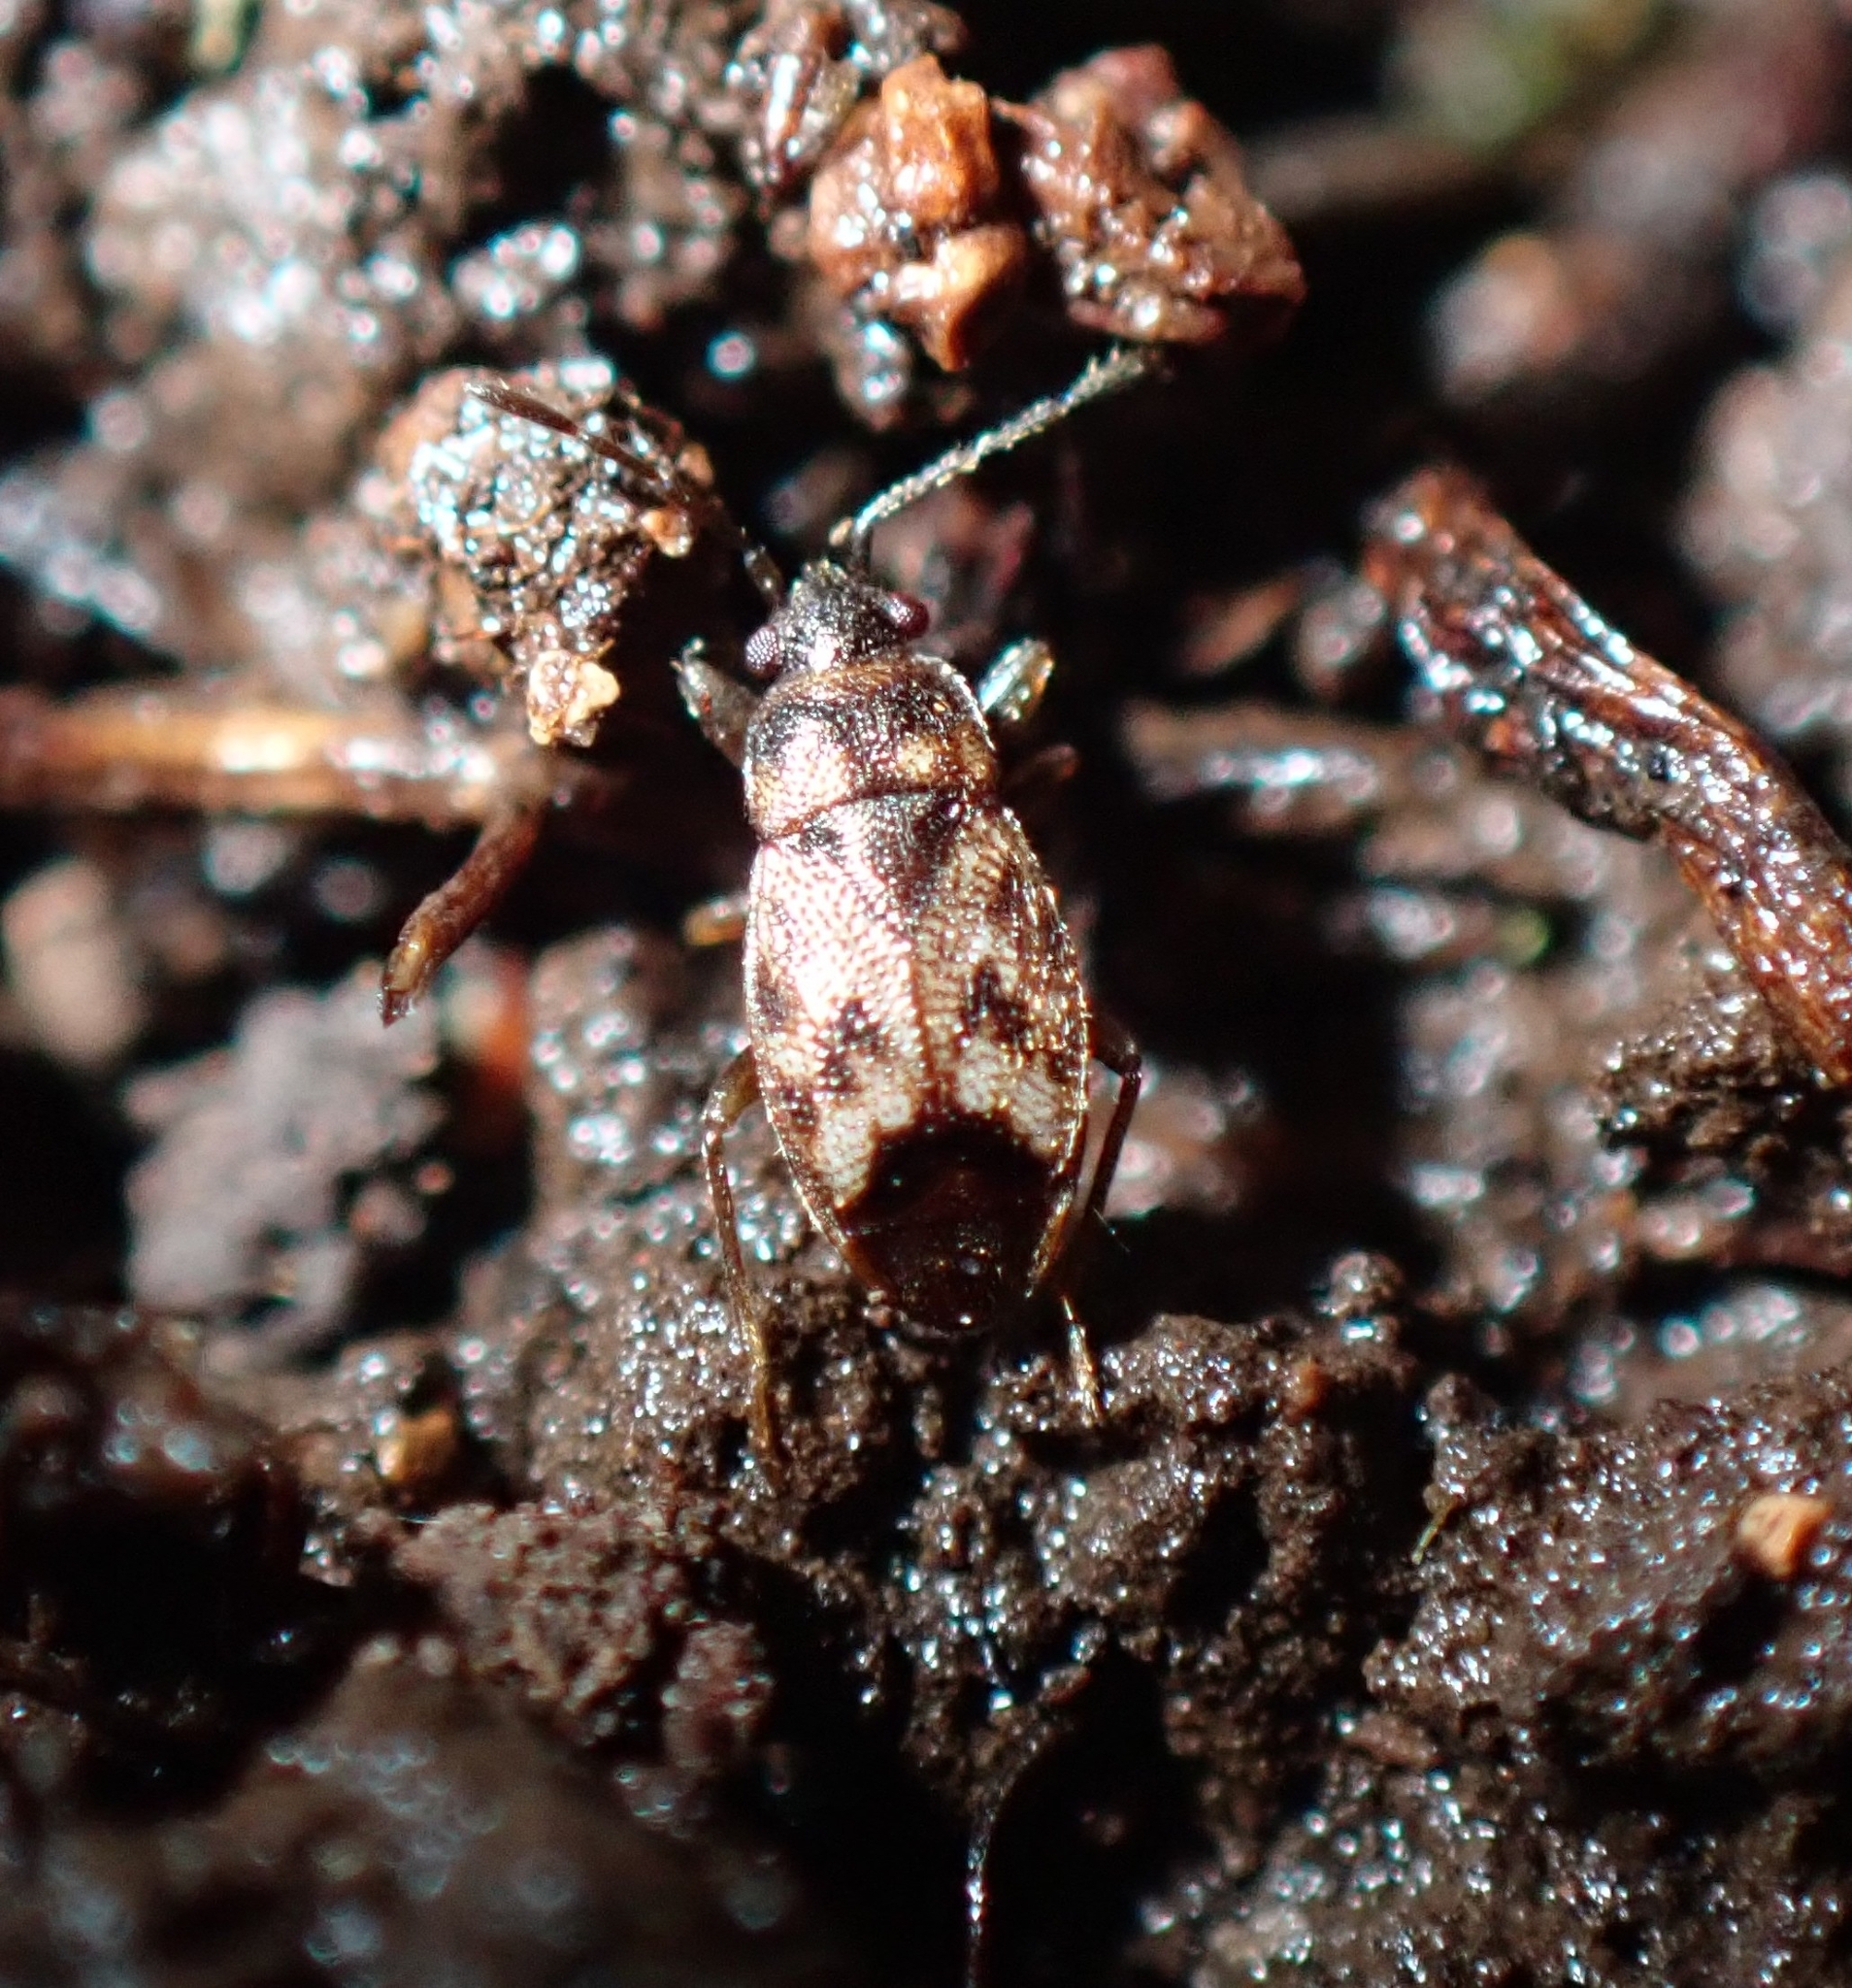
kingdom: Animalia
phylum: Arthropoda
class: Insecta
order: Hemiptera
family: Rhyparochromidae
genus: Stygnocoris
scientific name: Stygnocoris barbieri
